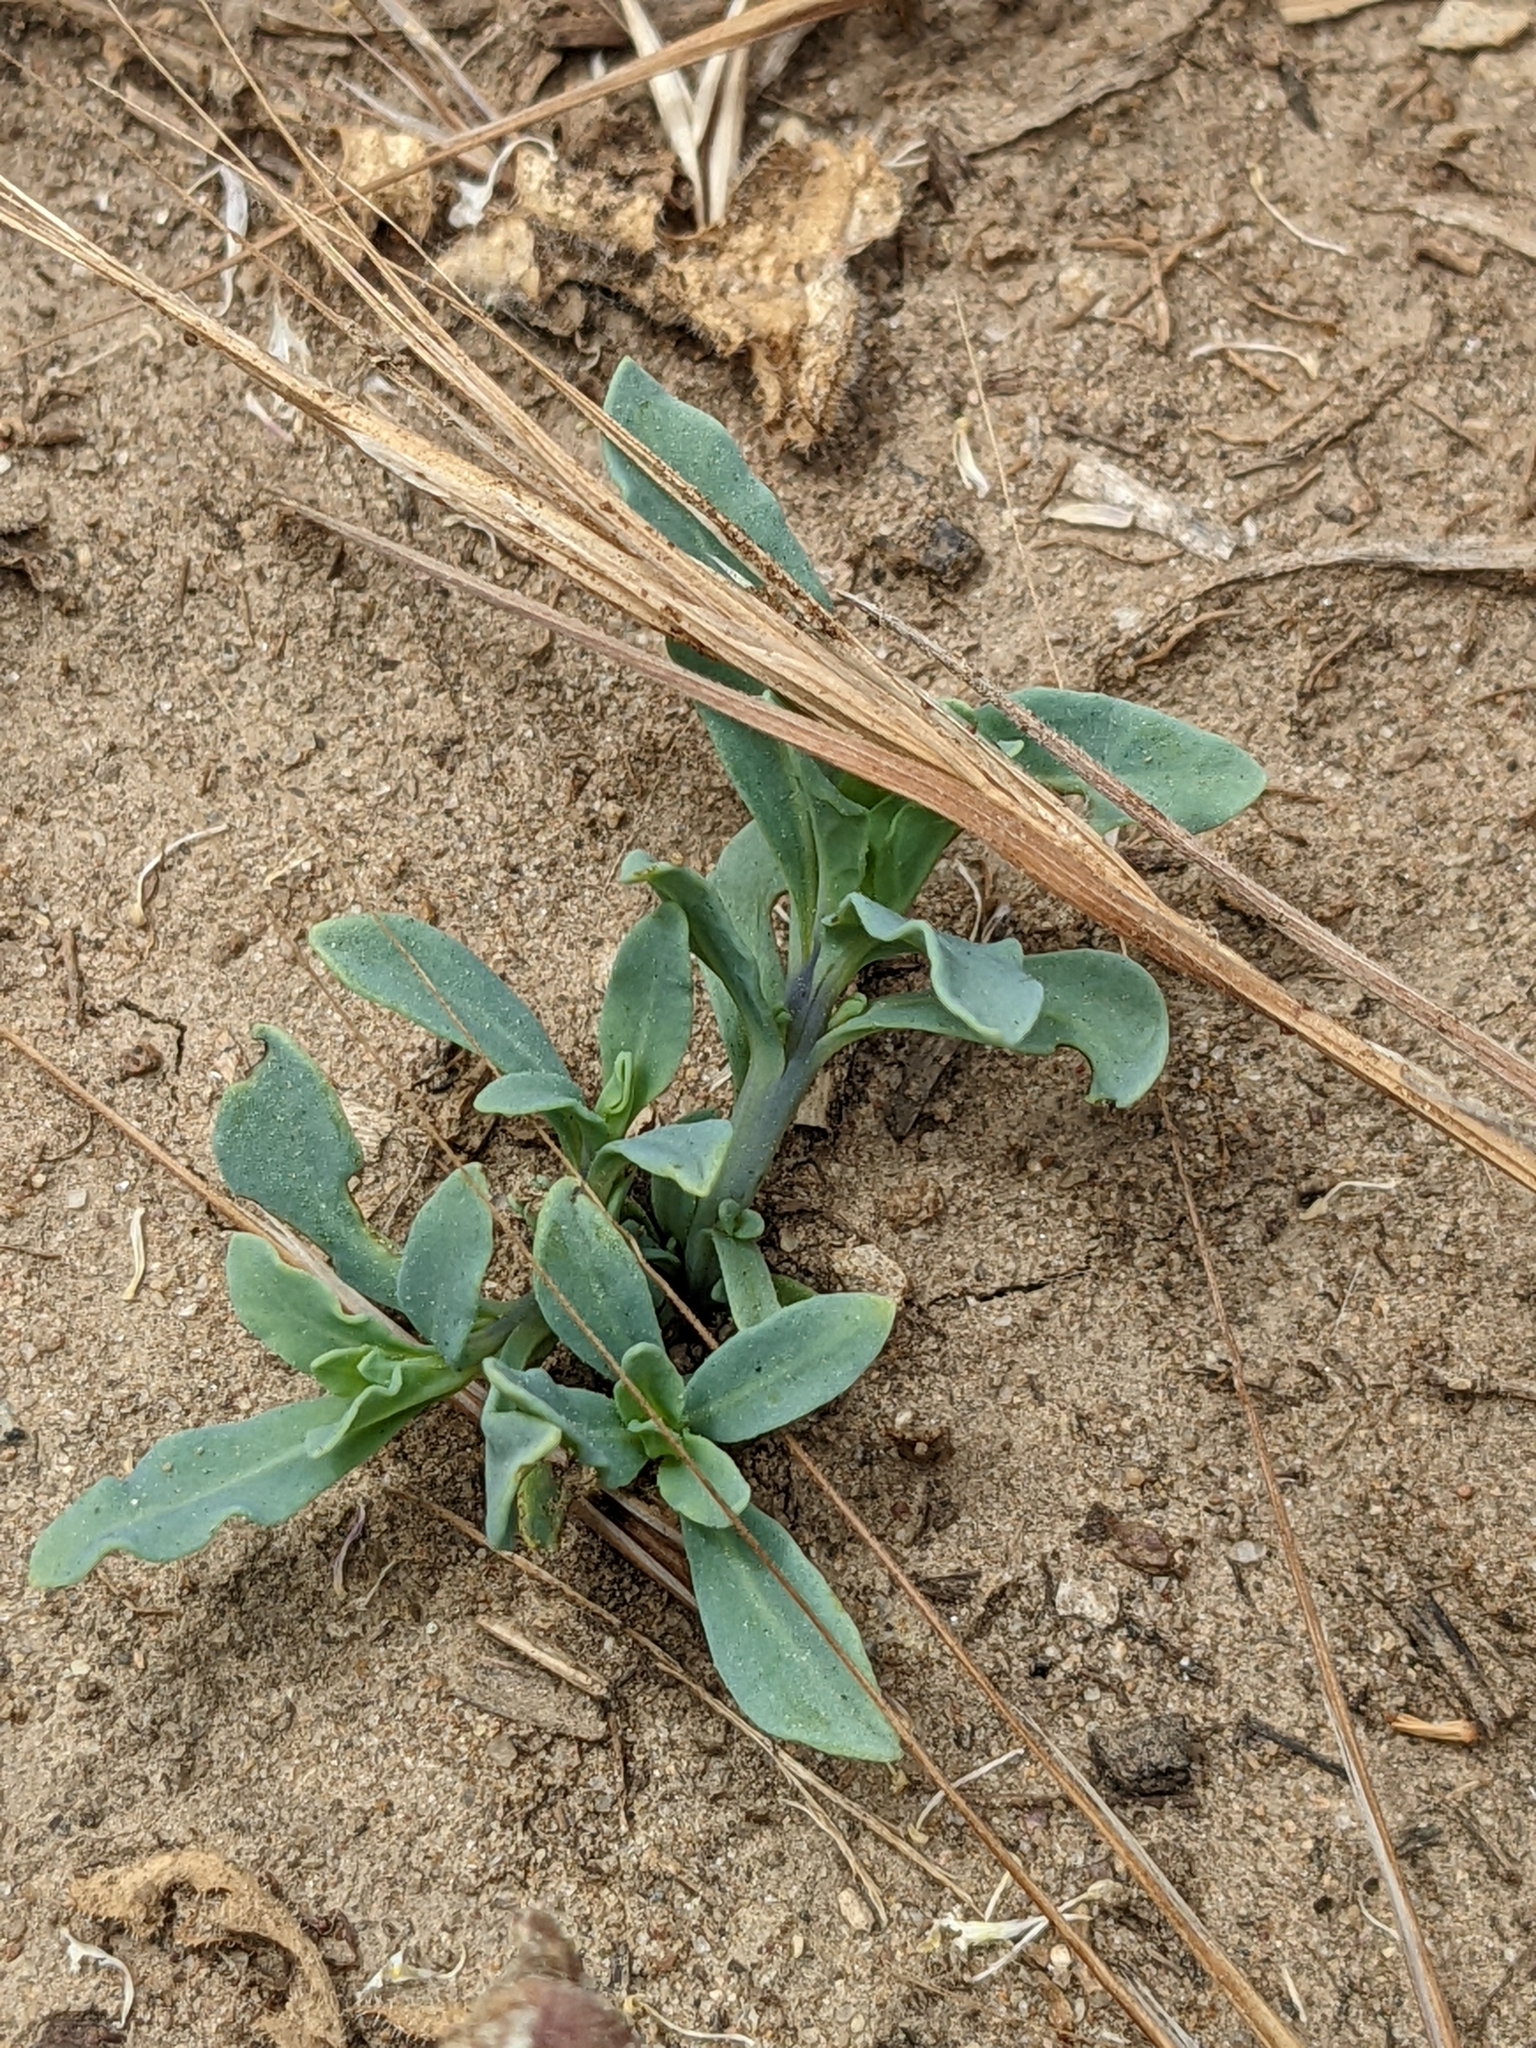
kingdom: Plantae
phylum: Tracheophyta
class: Magnoliopsida
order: Boraginales
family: Heliotropiaceae
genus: Heliotropium
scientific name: Heliotropium curassavicum
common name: Seaside heliotrope
